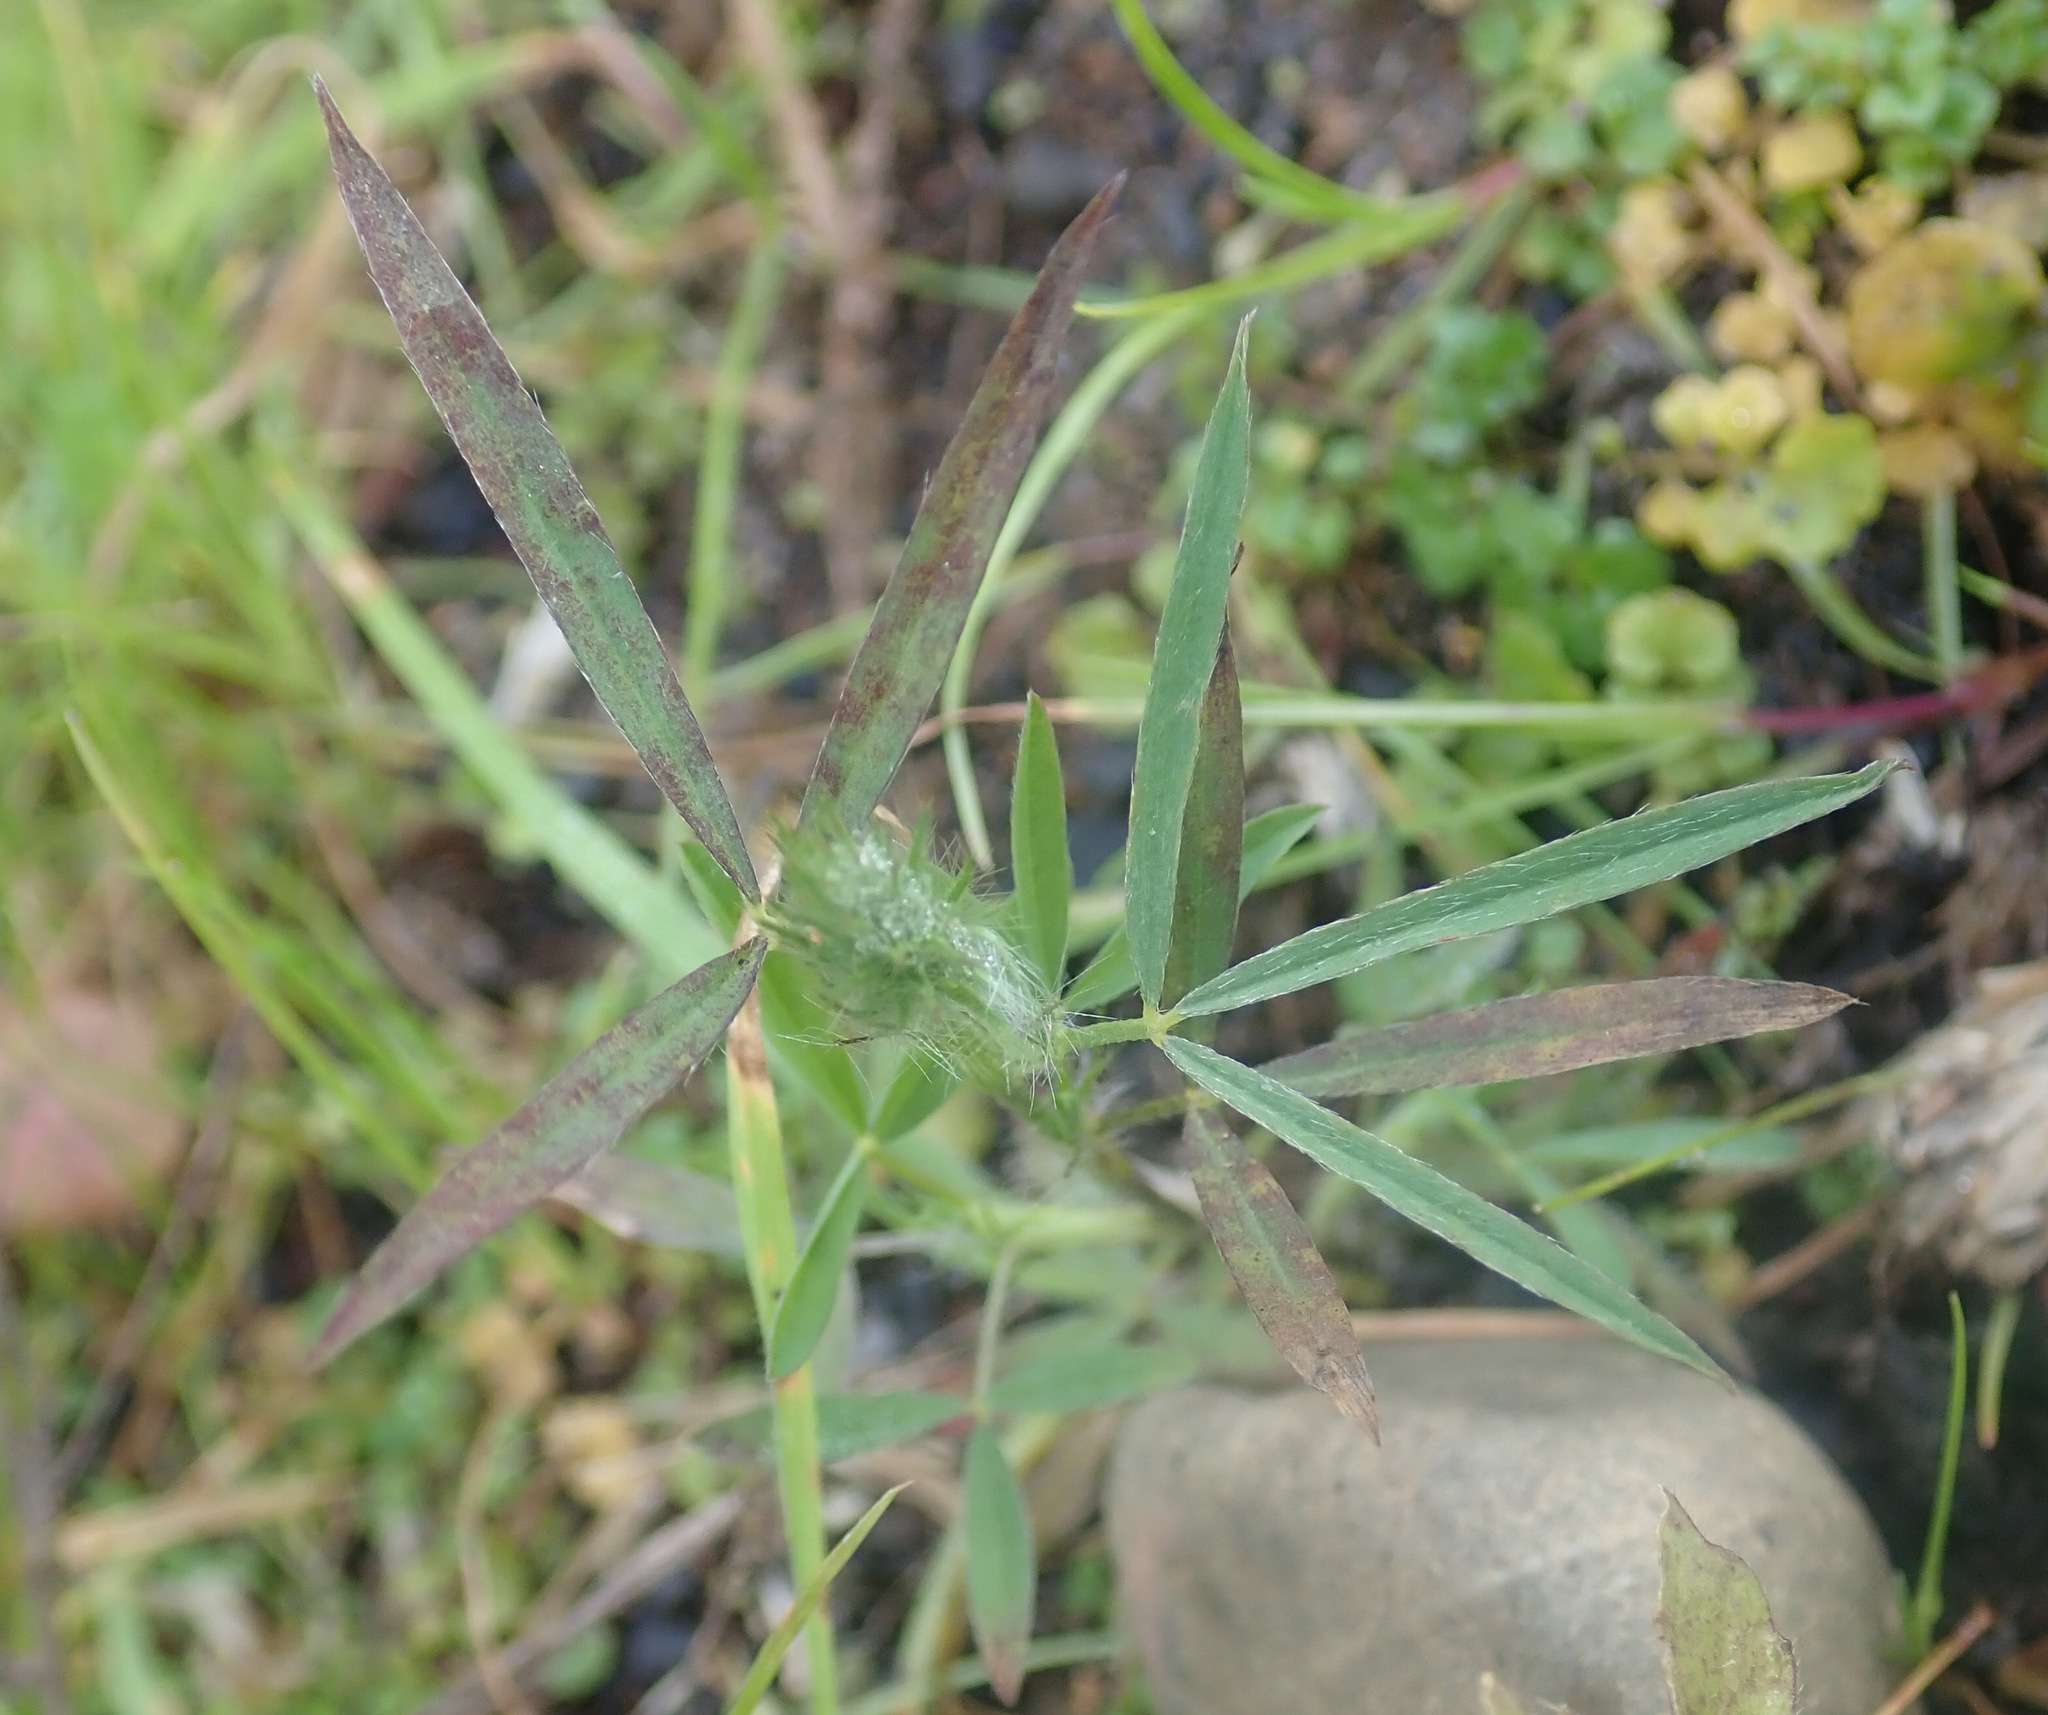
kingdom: Plantae
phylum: Tracheophyta
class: Magnoliopsida
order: Fabales
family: Fabaceae
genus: Trifolium
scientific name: Trifolium angustifolium
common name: Narrow clover
